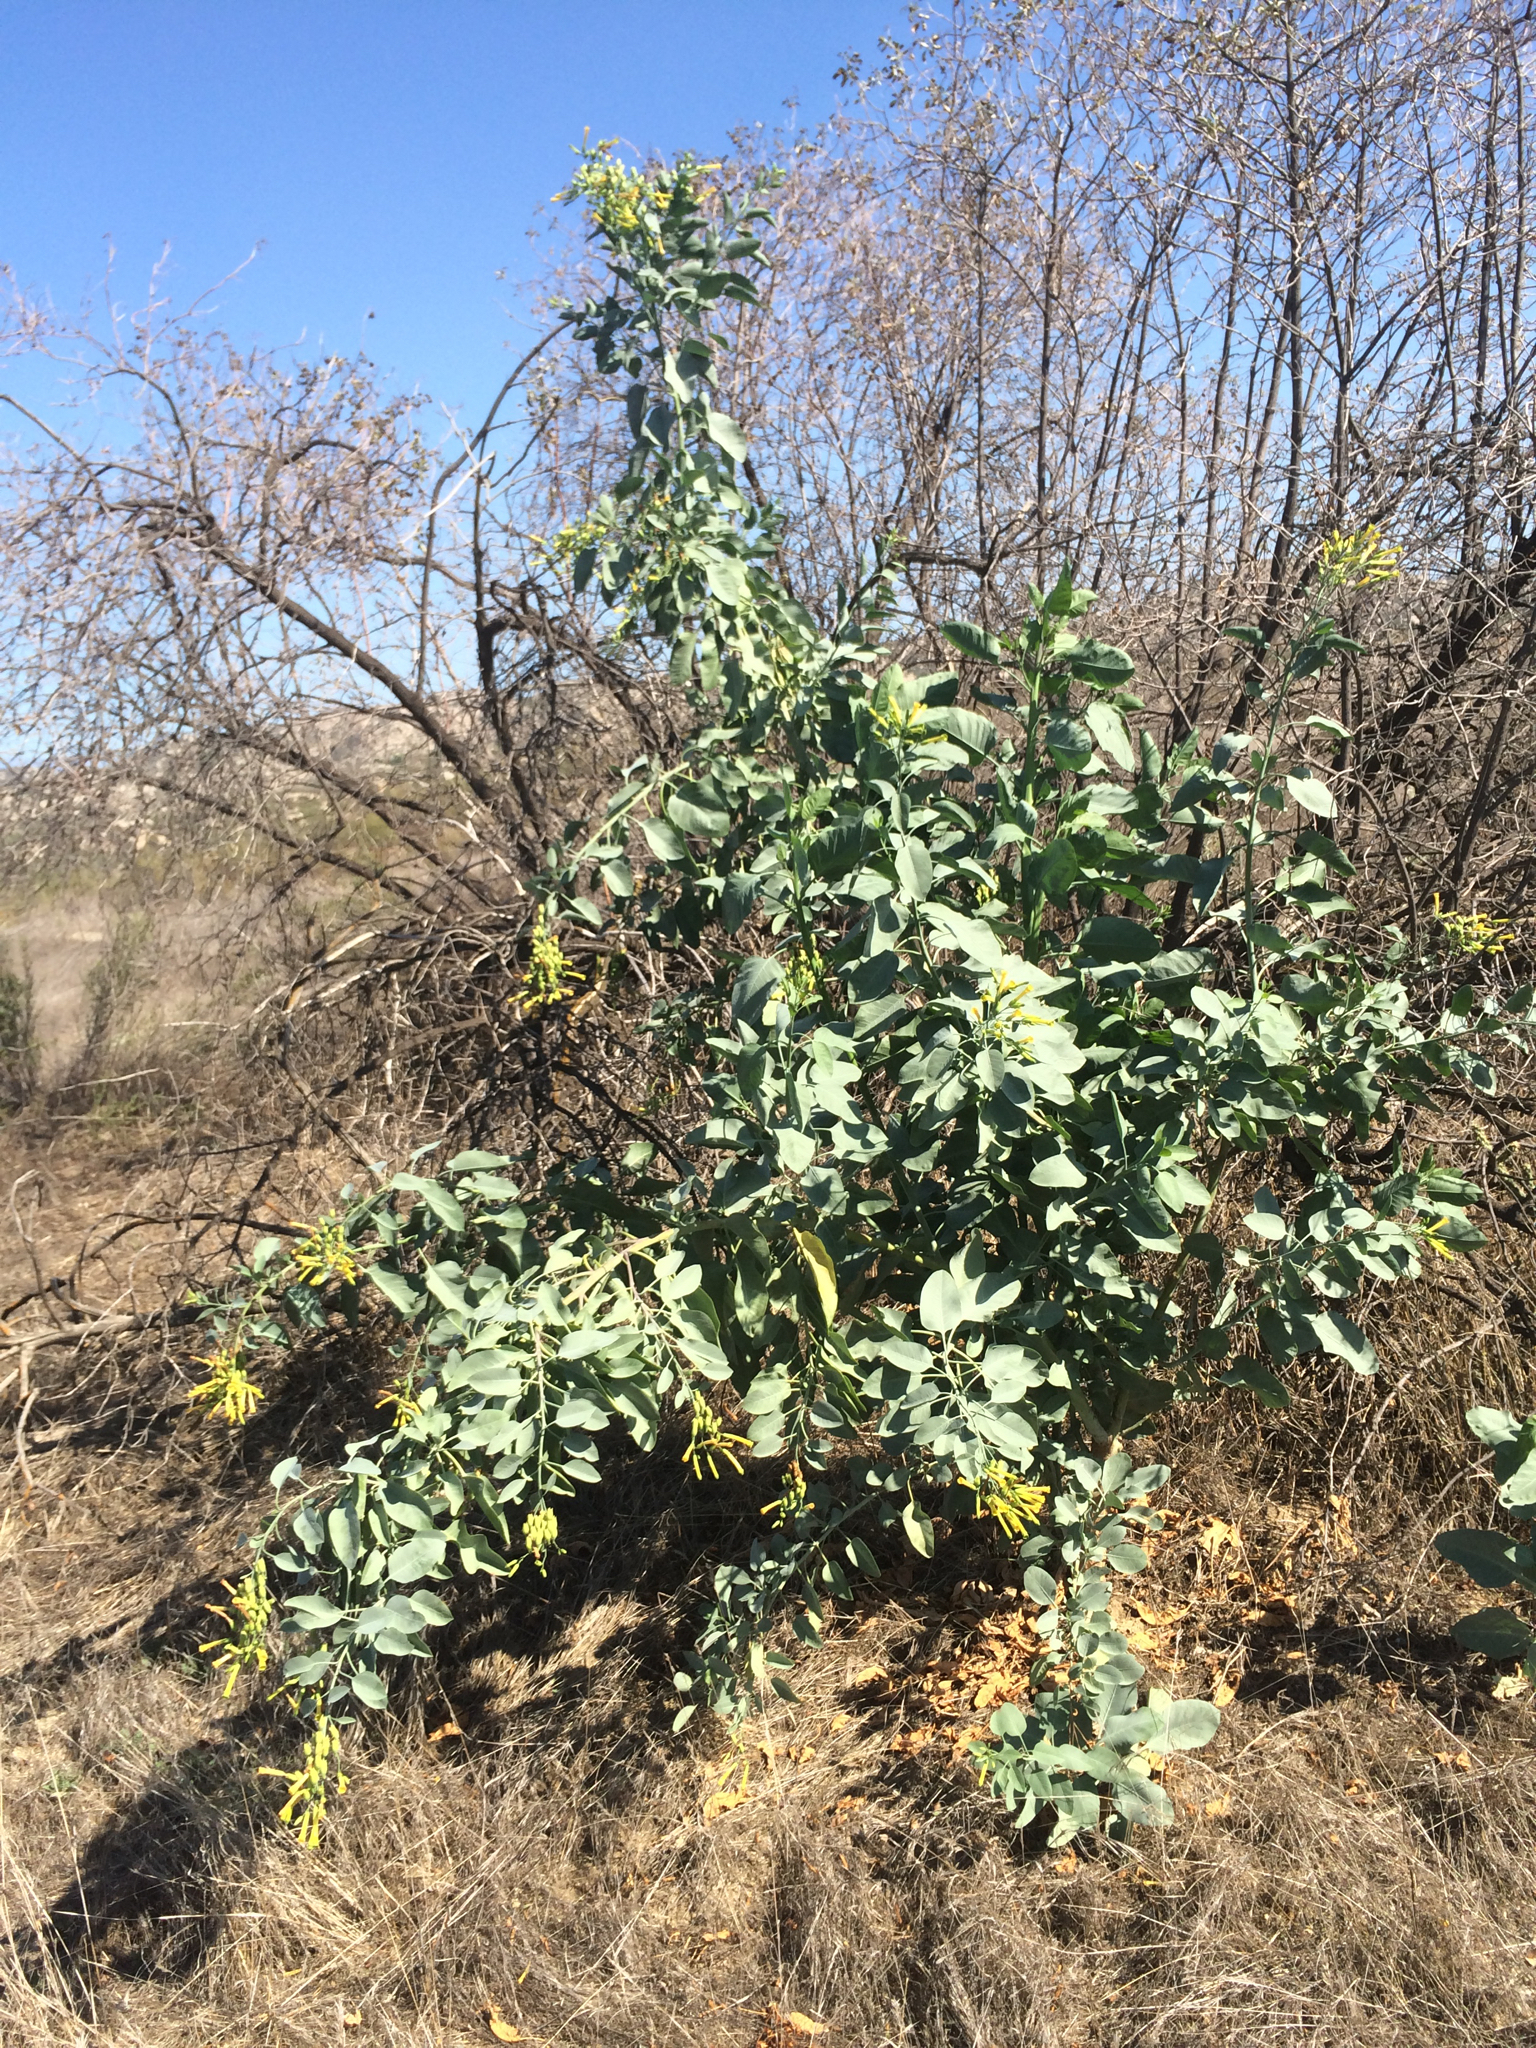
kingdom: Plantae
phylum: Tracheophyta
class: Magnoliopsida
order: Solanales
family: Solanaceae
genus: Nicotiana
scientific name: Nicotiana glauca
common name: Tree tobacco
